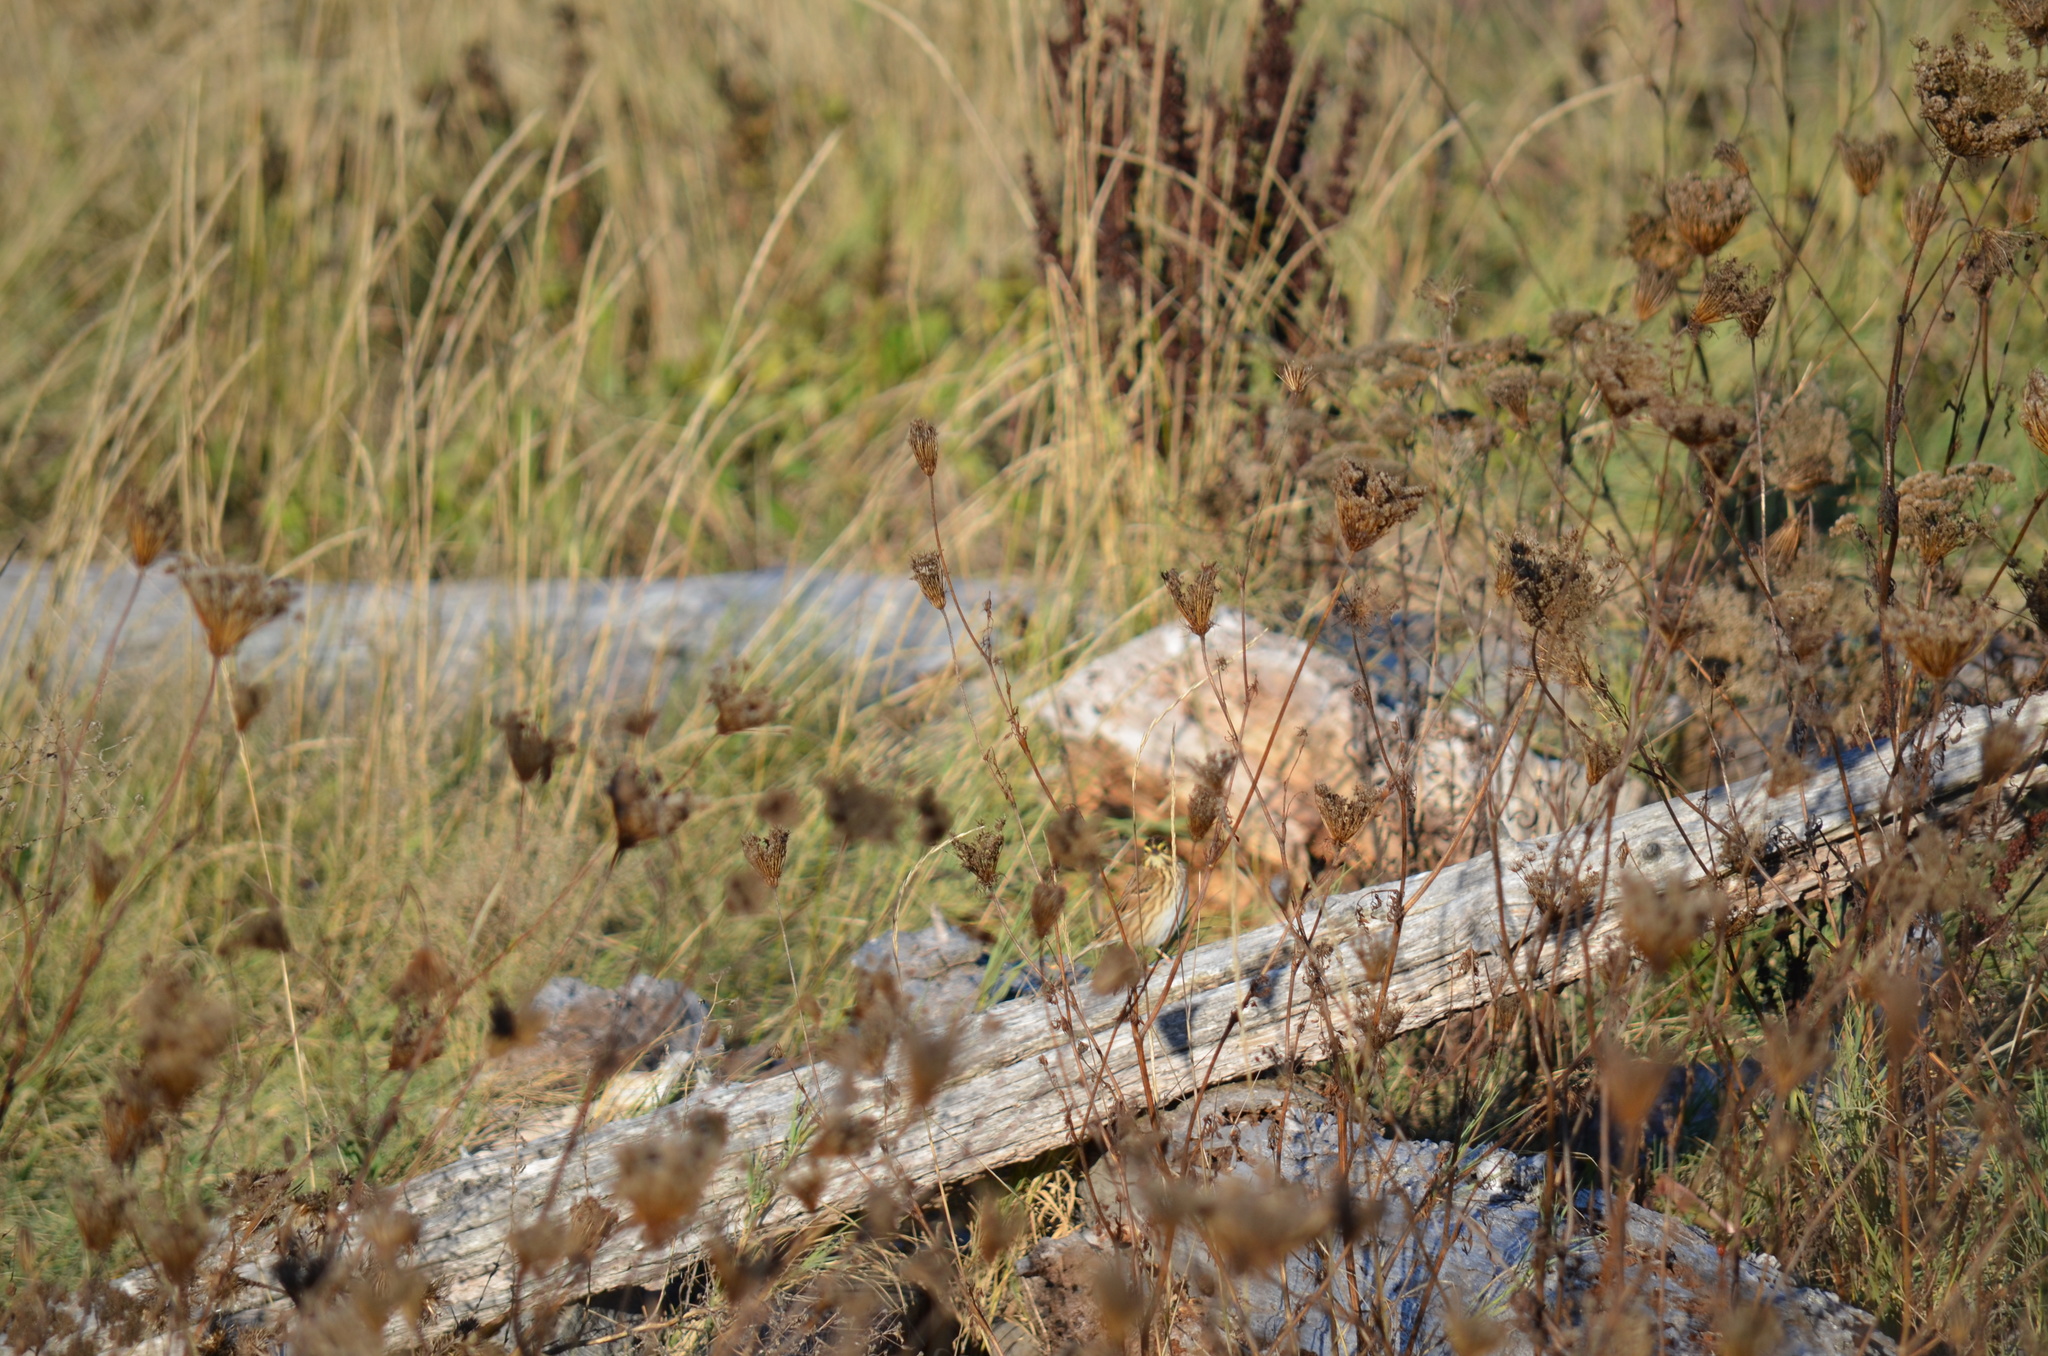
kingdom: Animalia
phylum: Chordata
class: Aves
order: Passeriformes
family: Passerellidae
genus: Passerculus
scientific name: Passerculus sandwichensis
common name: Savannah sparrow
